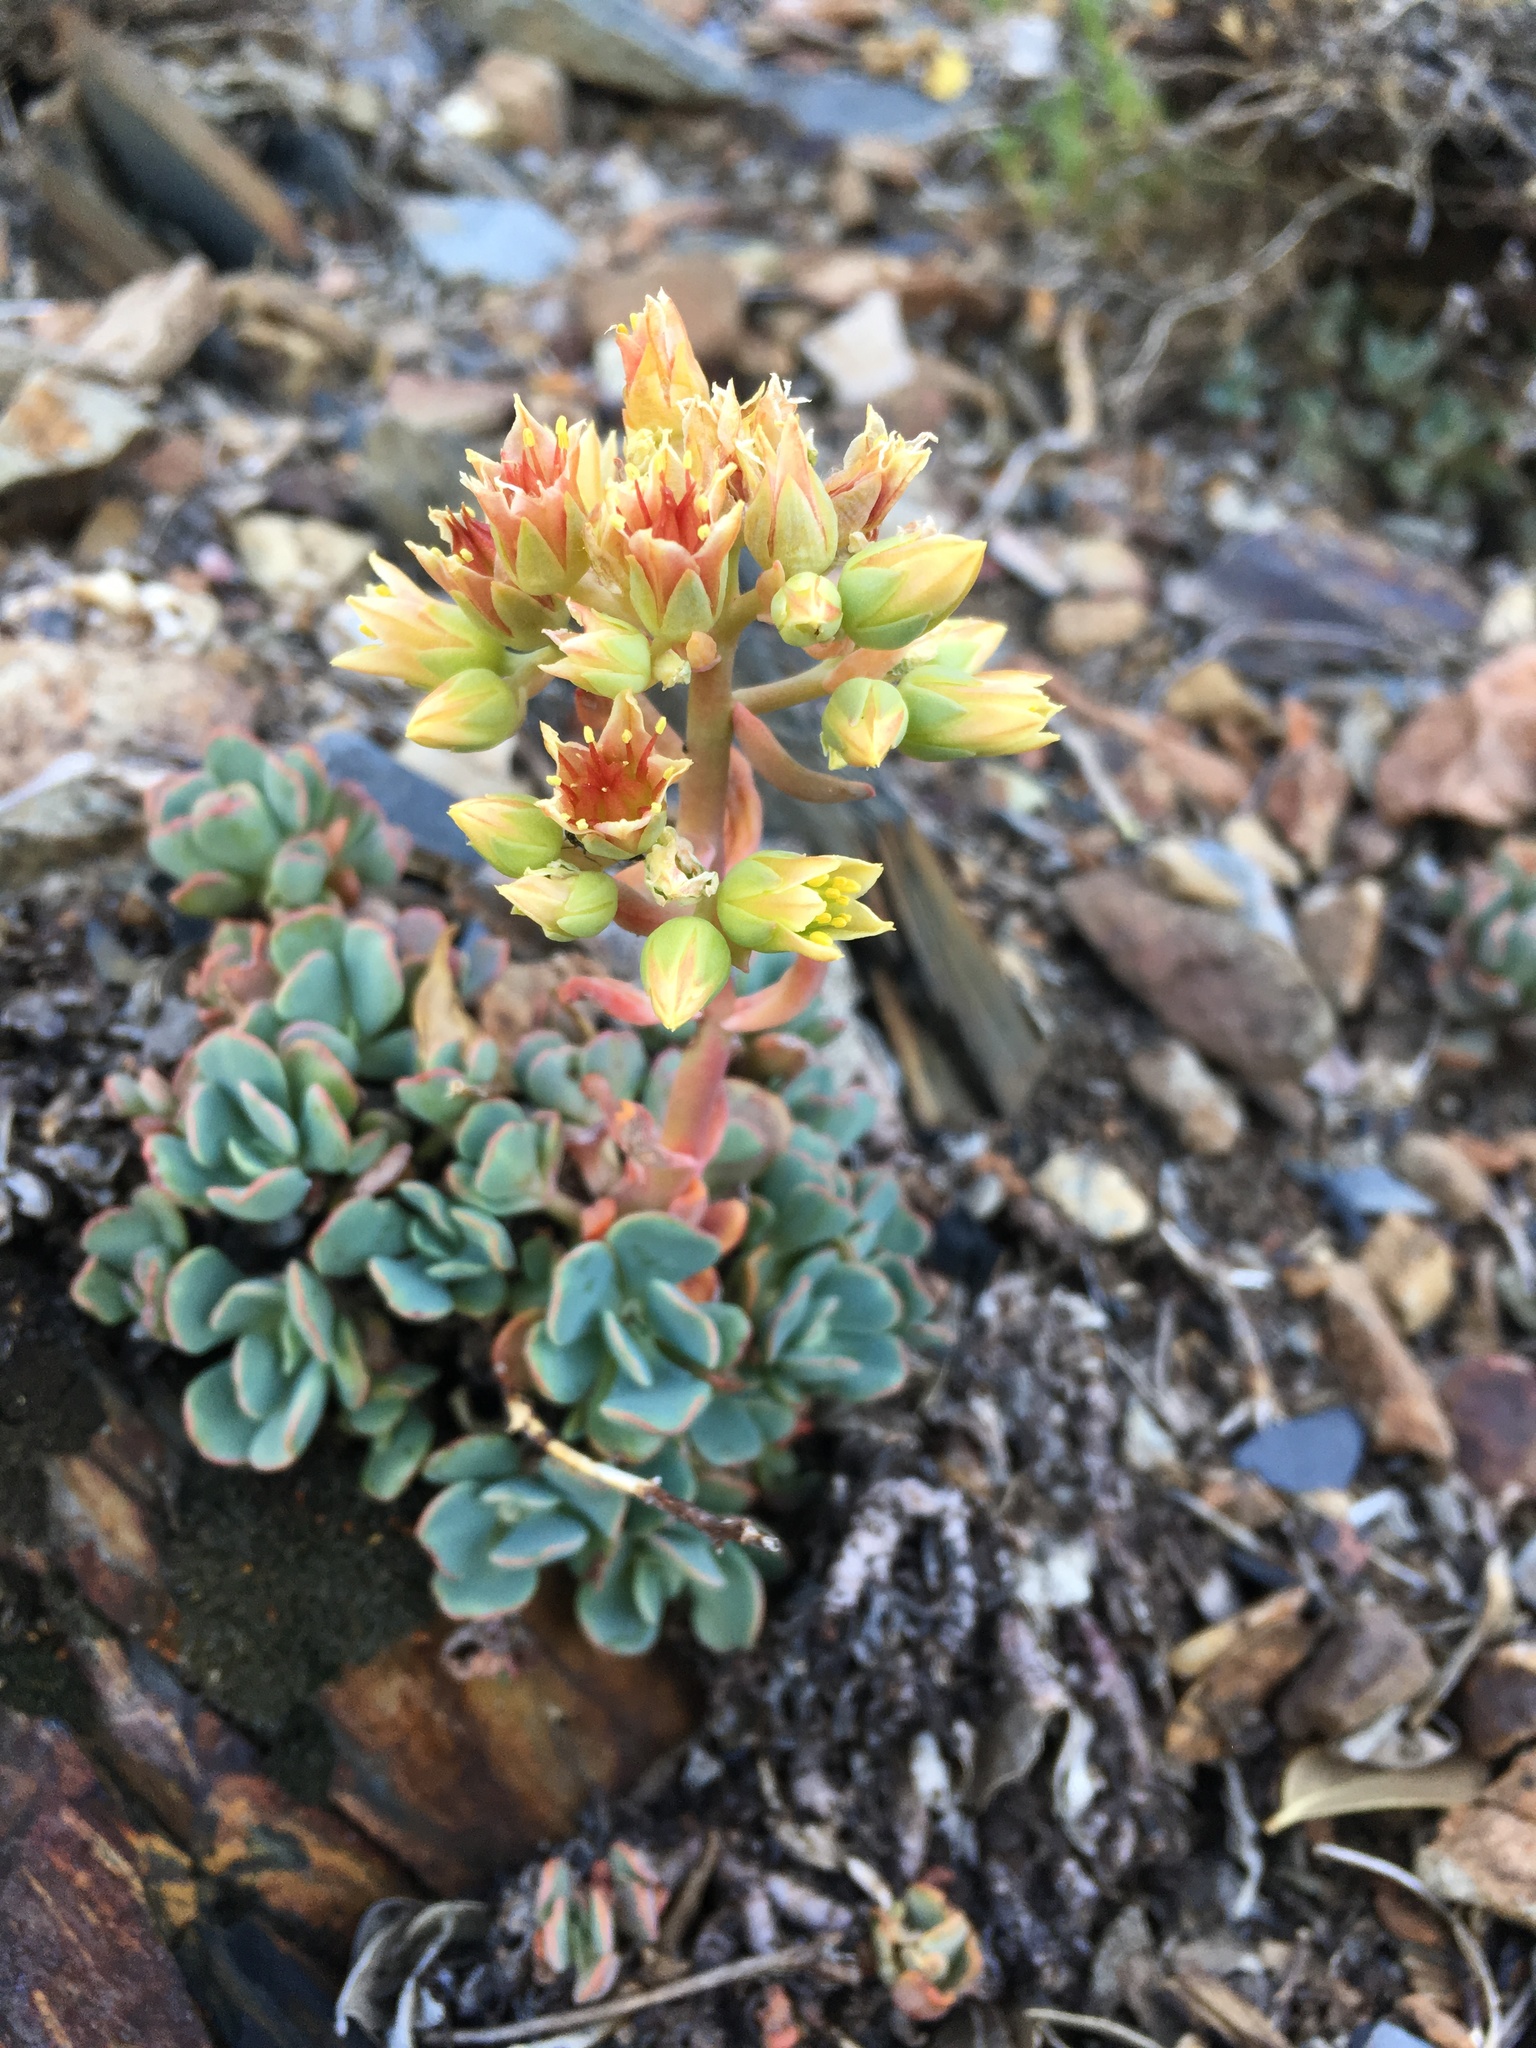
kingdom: Plantae
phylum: Tracheophyta
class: Magnoliopsida
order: Saxifragales
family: Crassulaceae
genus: Sedum
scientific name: Sedum paradisum
